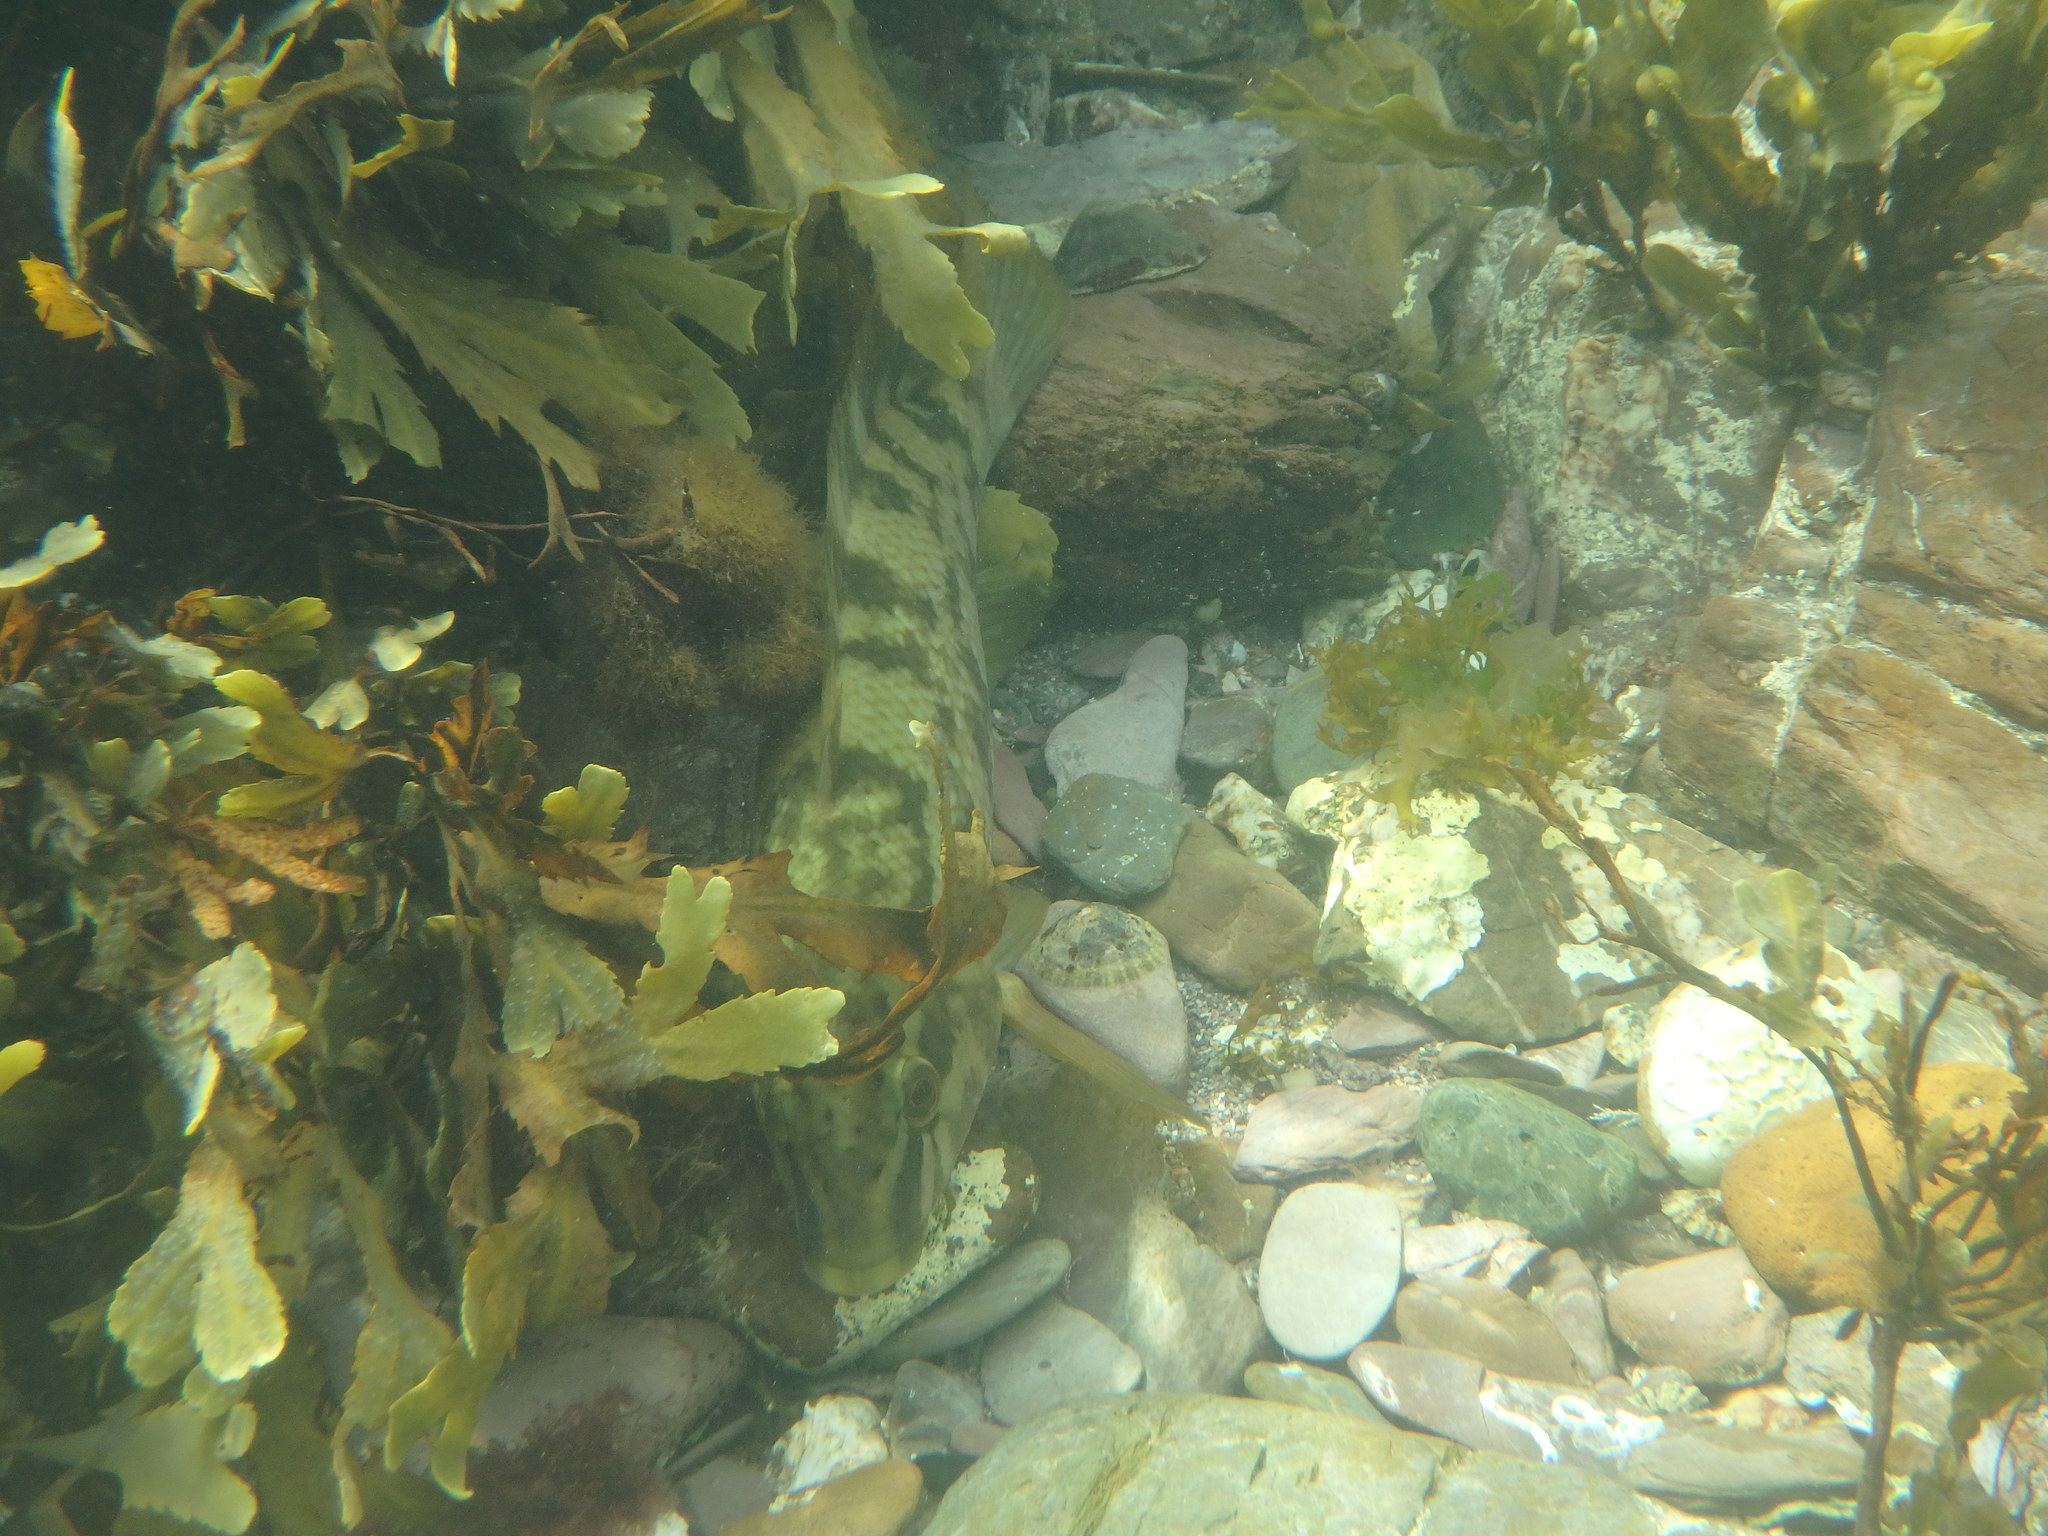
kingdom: Animalia
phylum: Chordata
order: Perciformes
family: Labridae
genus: Labrus
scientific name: Labrus bergylta
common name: Ballan wrasse
